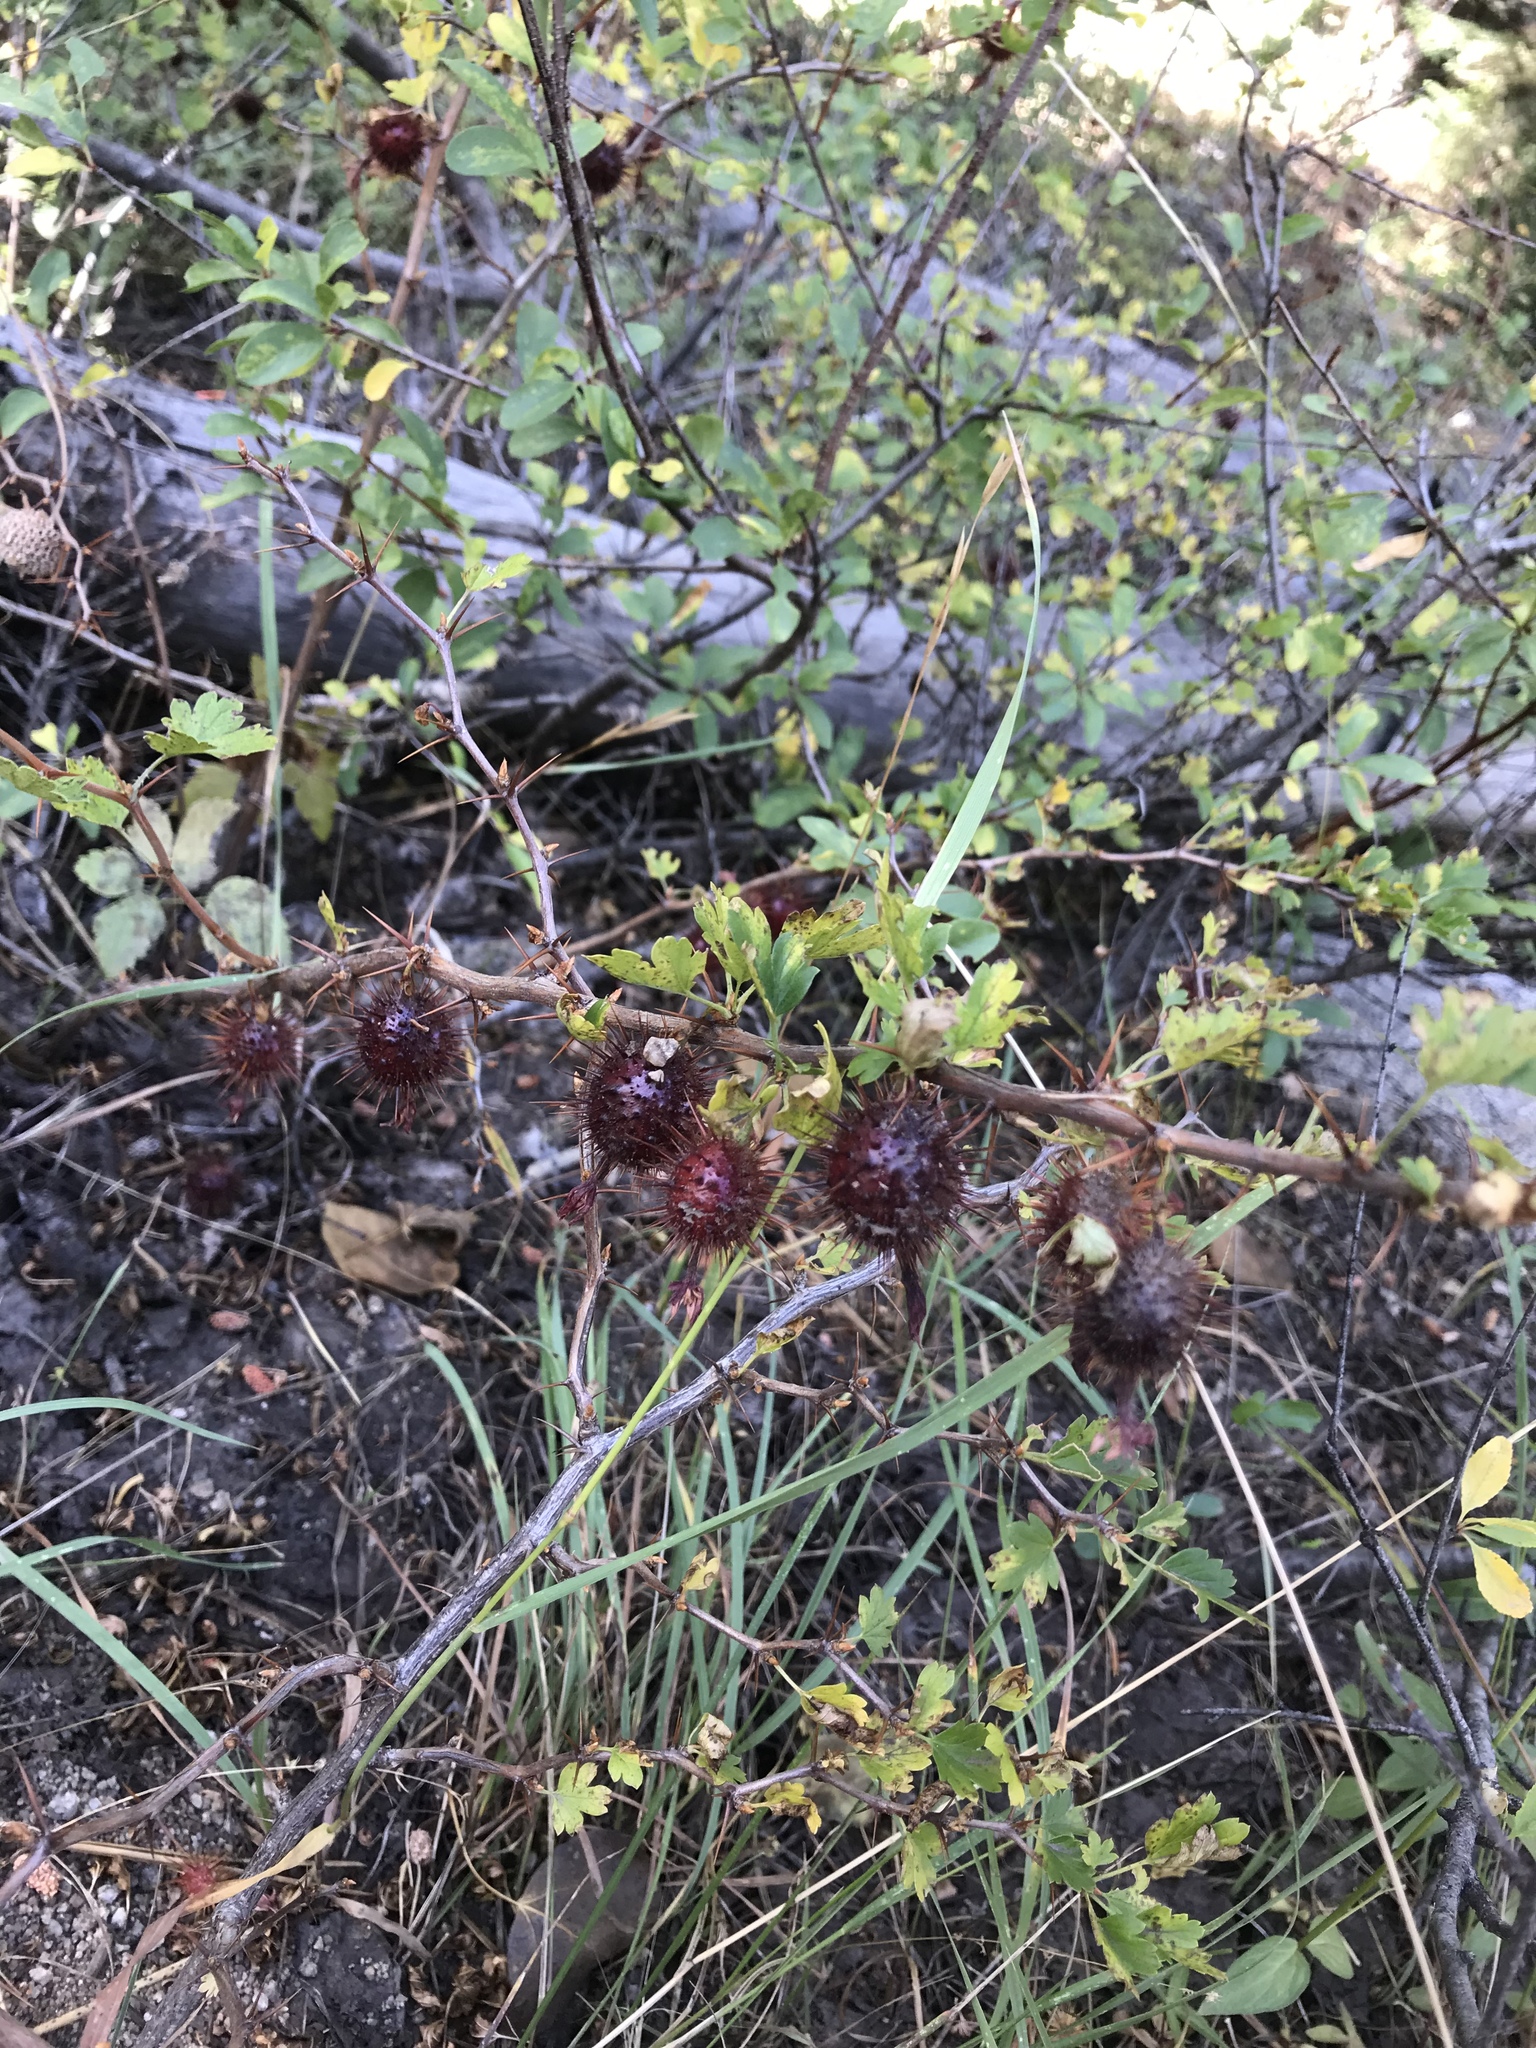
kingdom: Plantae
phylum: Tracheophyta
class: Magnoliopsida
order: Saxifragales
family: Grossulariaceae
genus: Ribes
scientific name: Ribes roezlii
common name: Sierra gooseberry
